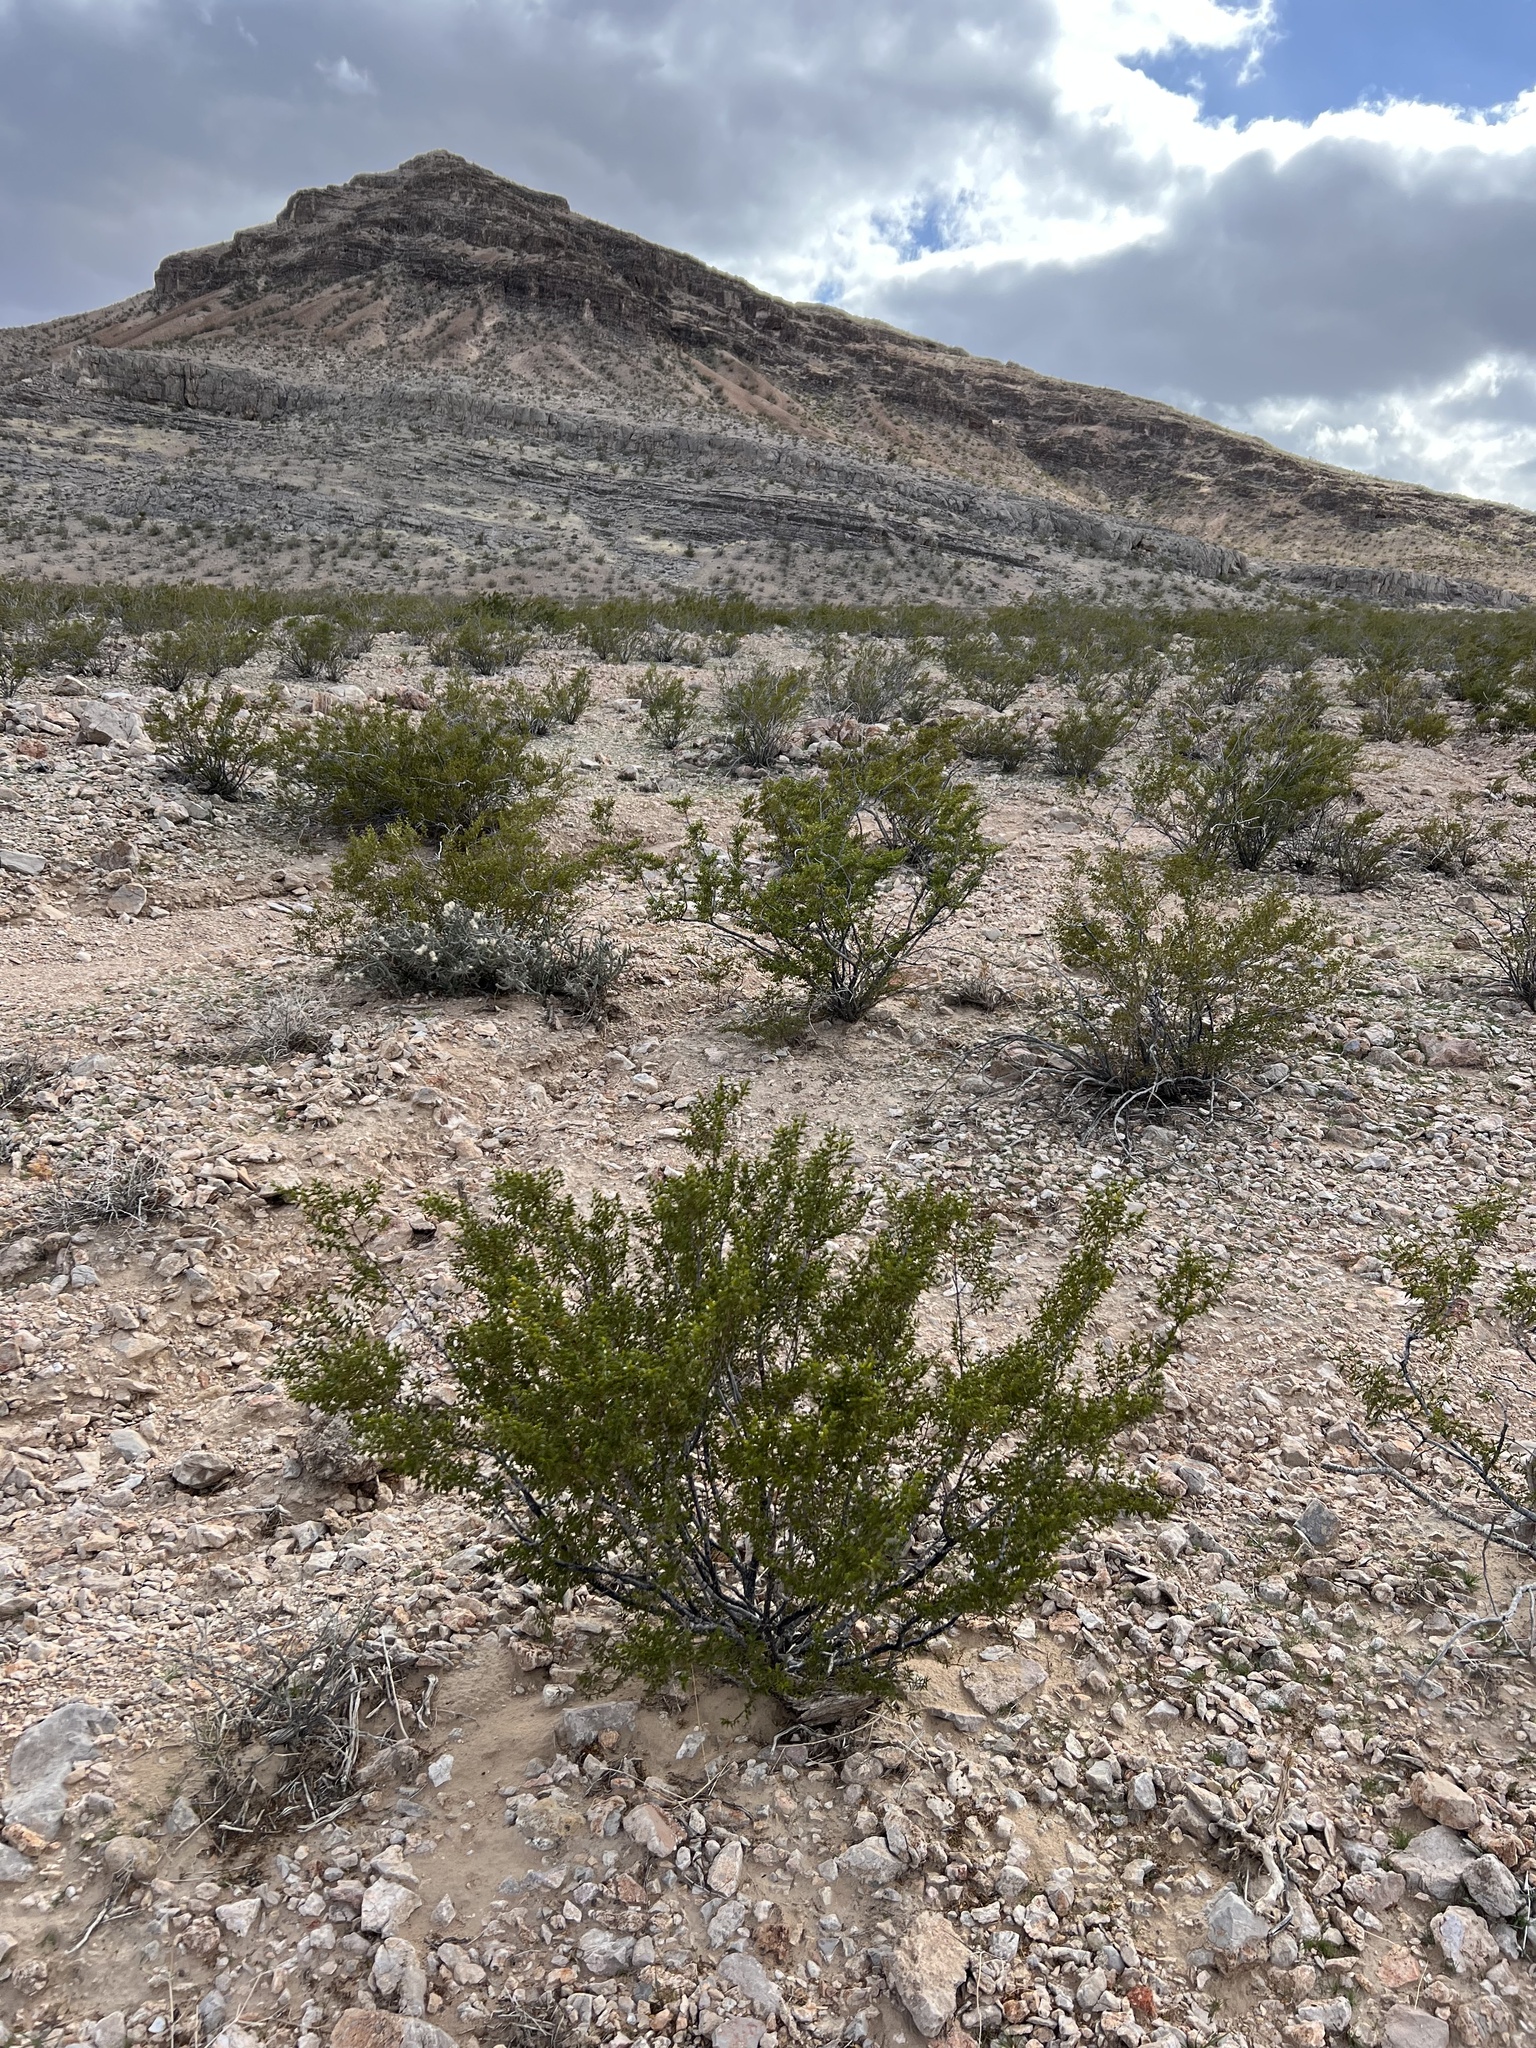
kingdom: Plantae
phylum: Tracheophyta
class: Magnoliopsida
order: Zygophyllales
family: Zygophyllaceae
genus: Larrea
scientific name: Larrea tridentata
